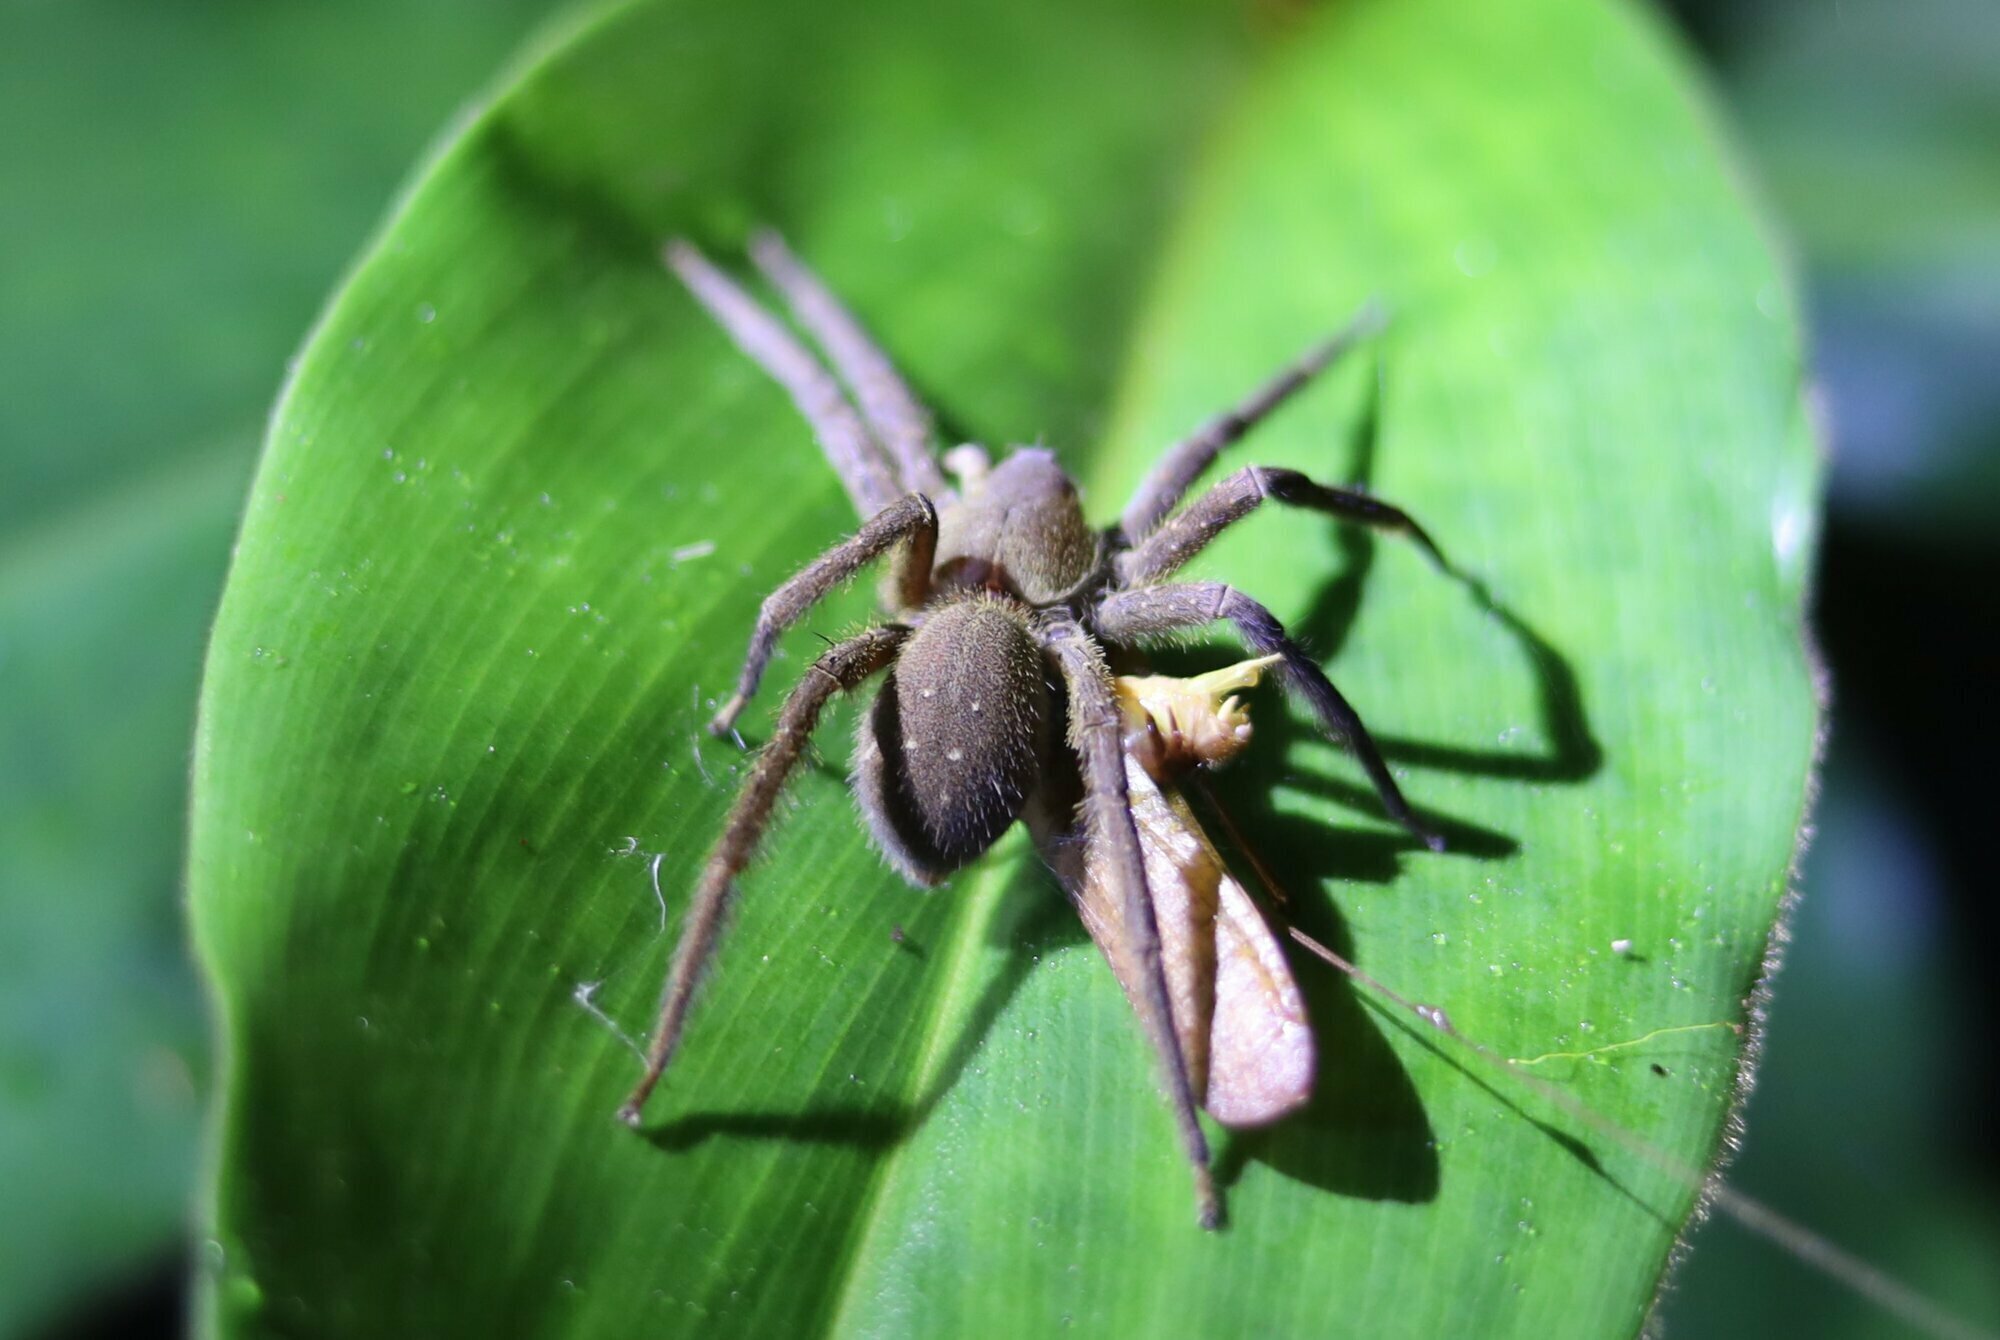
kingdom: Animalia
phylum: Arthropoda
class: Arachnida
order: Araneae
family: Ctenidae
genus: Phoneutria
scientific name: Phoneutria boliviensis
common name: Wandering spiders
